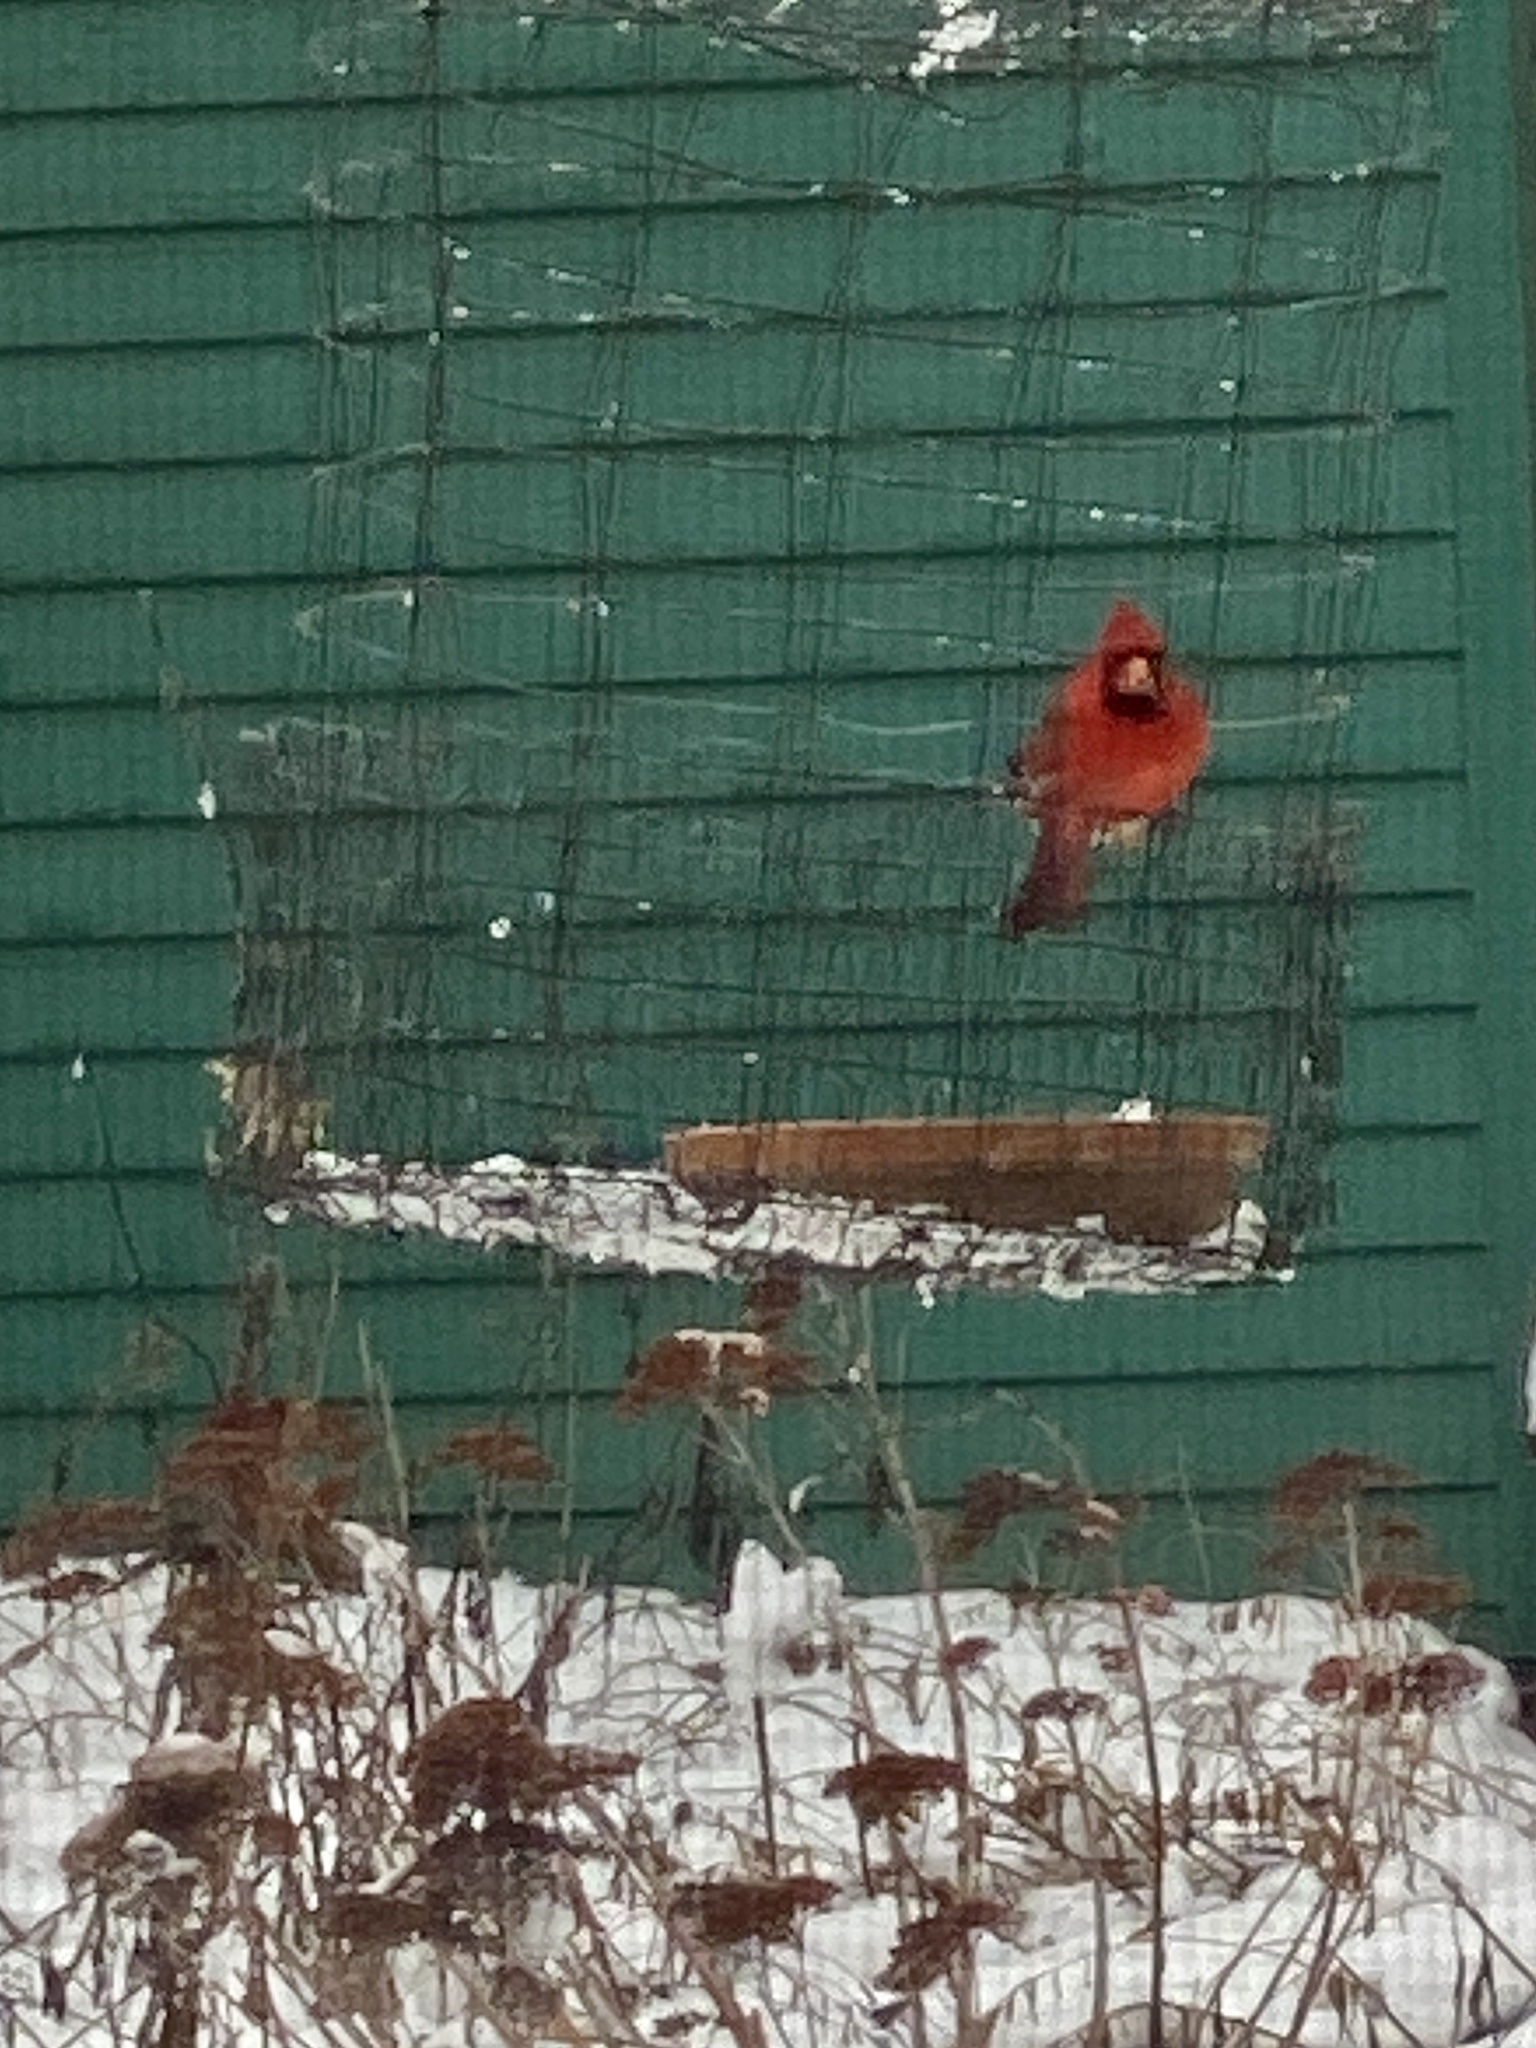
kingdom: Animalia
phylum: Chordata
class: Aves
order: Passeriformes
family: Cardinalidae
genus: Cardinalis
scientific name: Cardinalis cardinalis
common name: Northern cardinal
